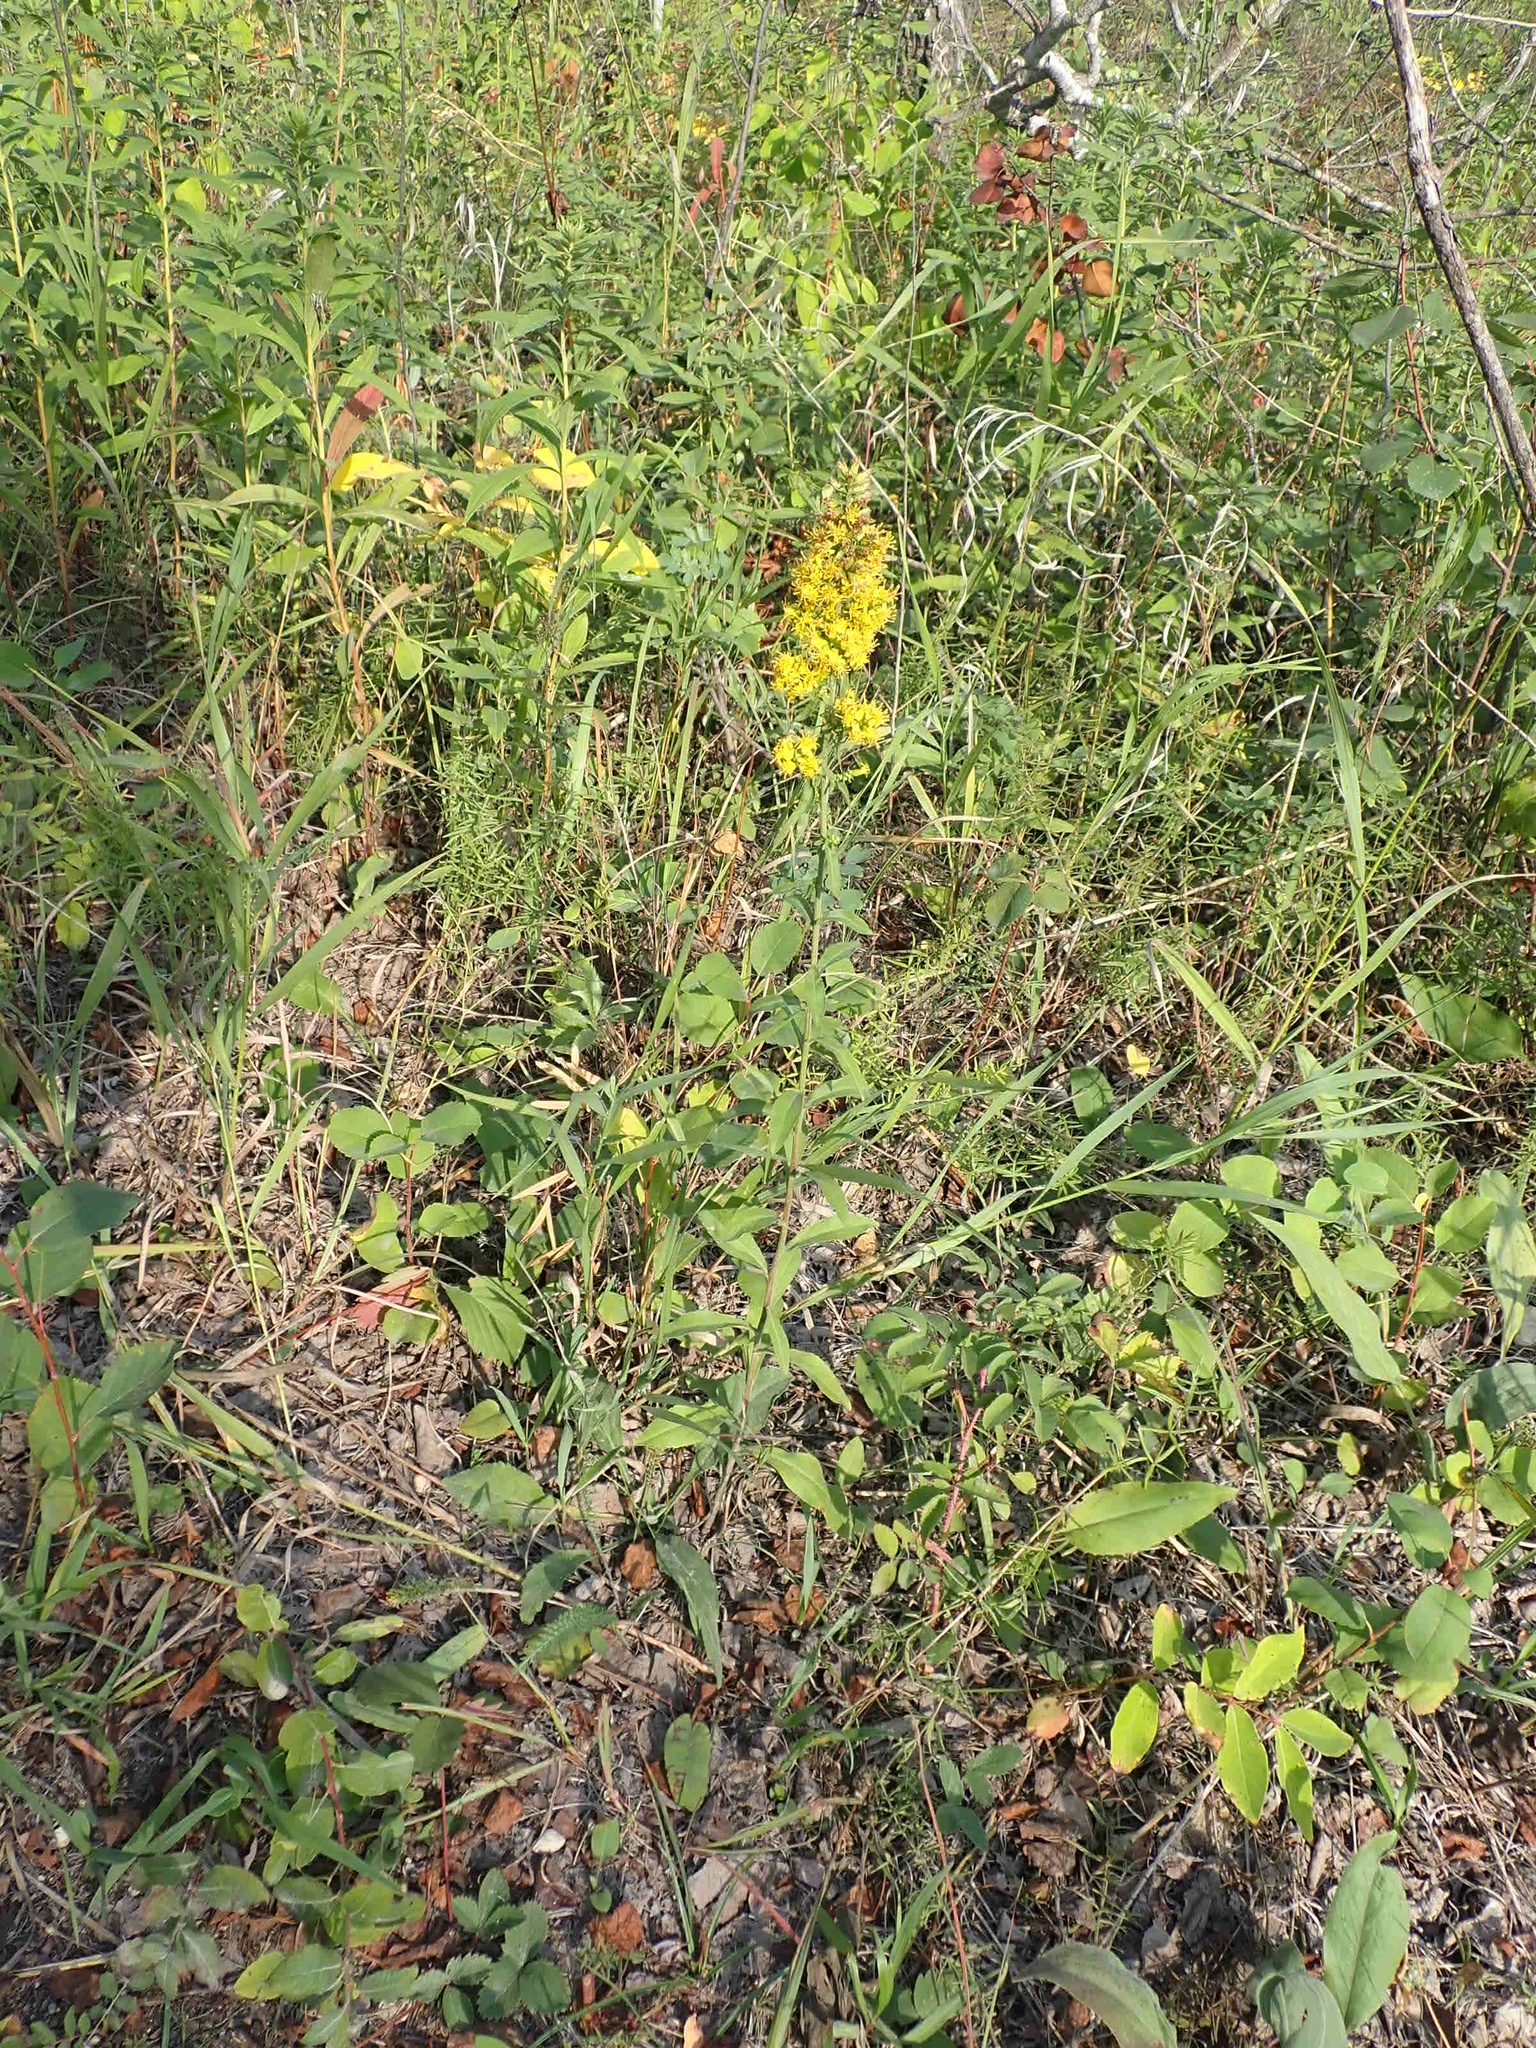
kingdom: Plantae
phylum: Tracheophyta
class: Magnoliopsida
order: Asterales
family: Asteraceae
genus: Solidago
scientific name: Solidago hispida
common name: Hairy goldenrod
